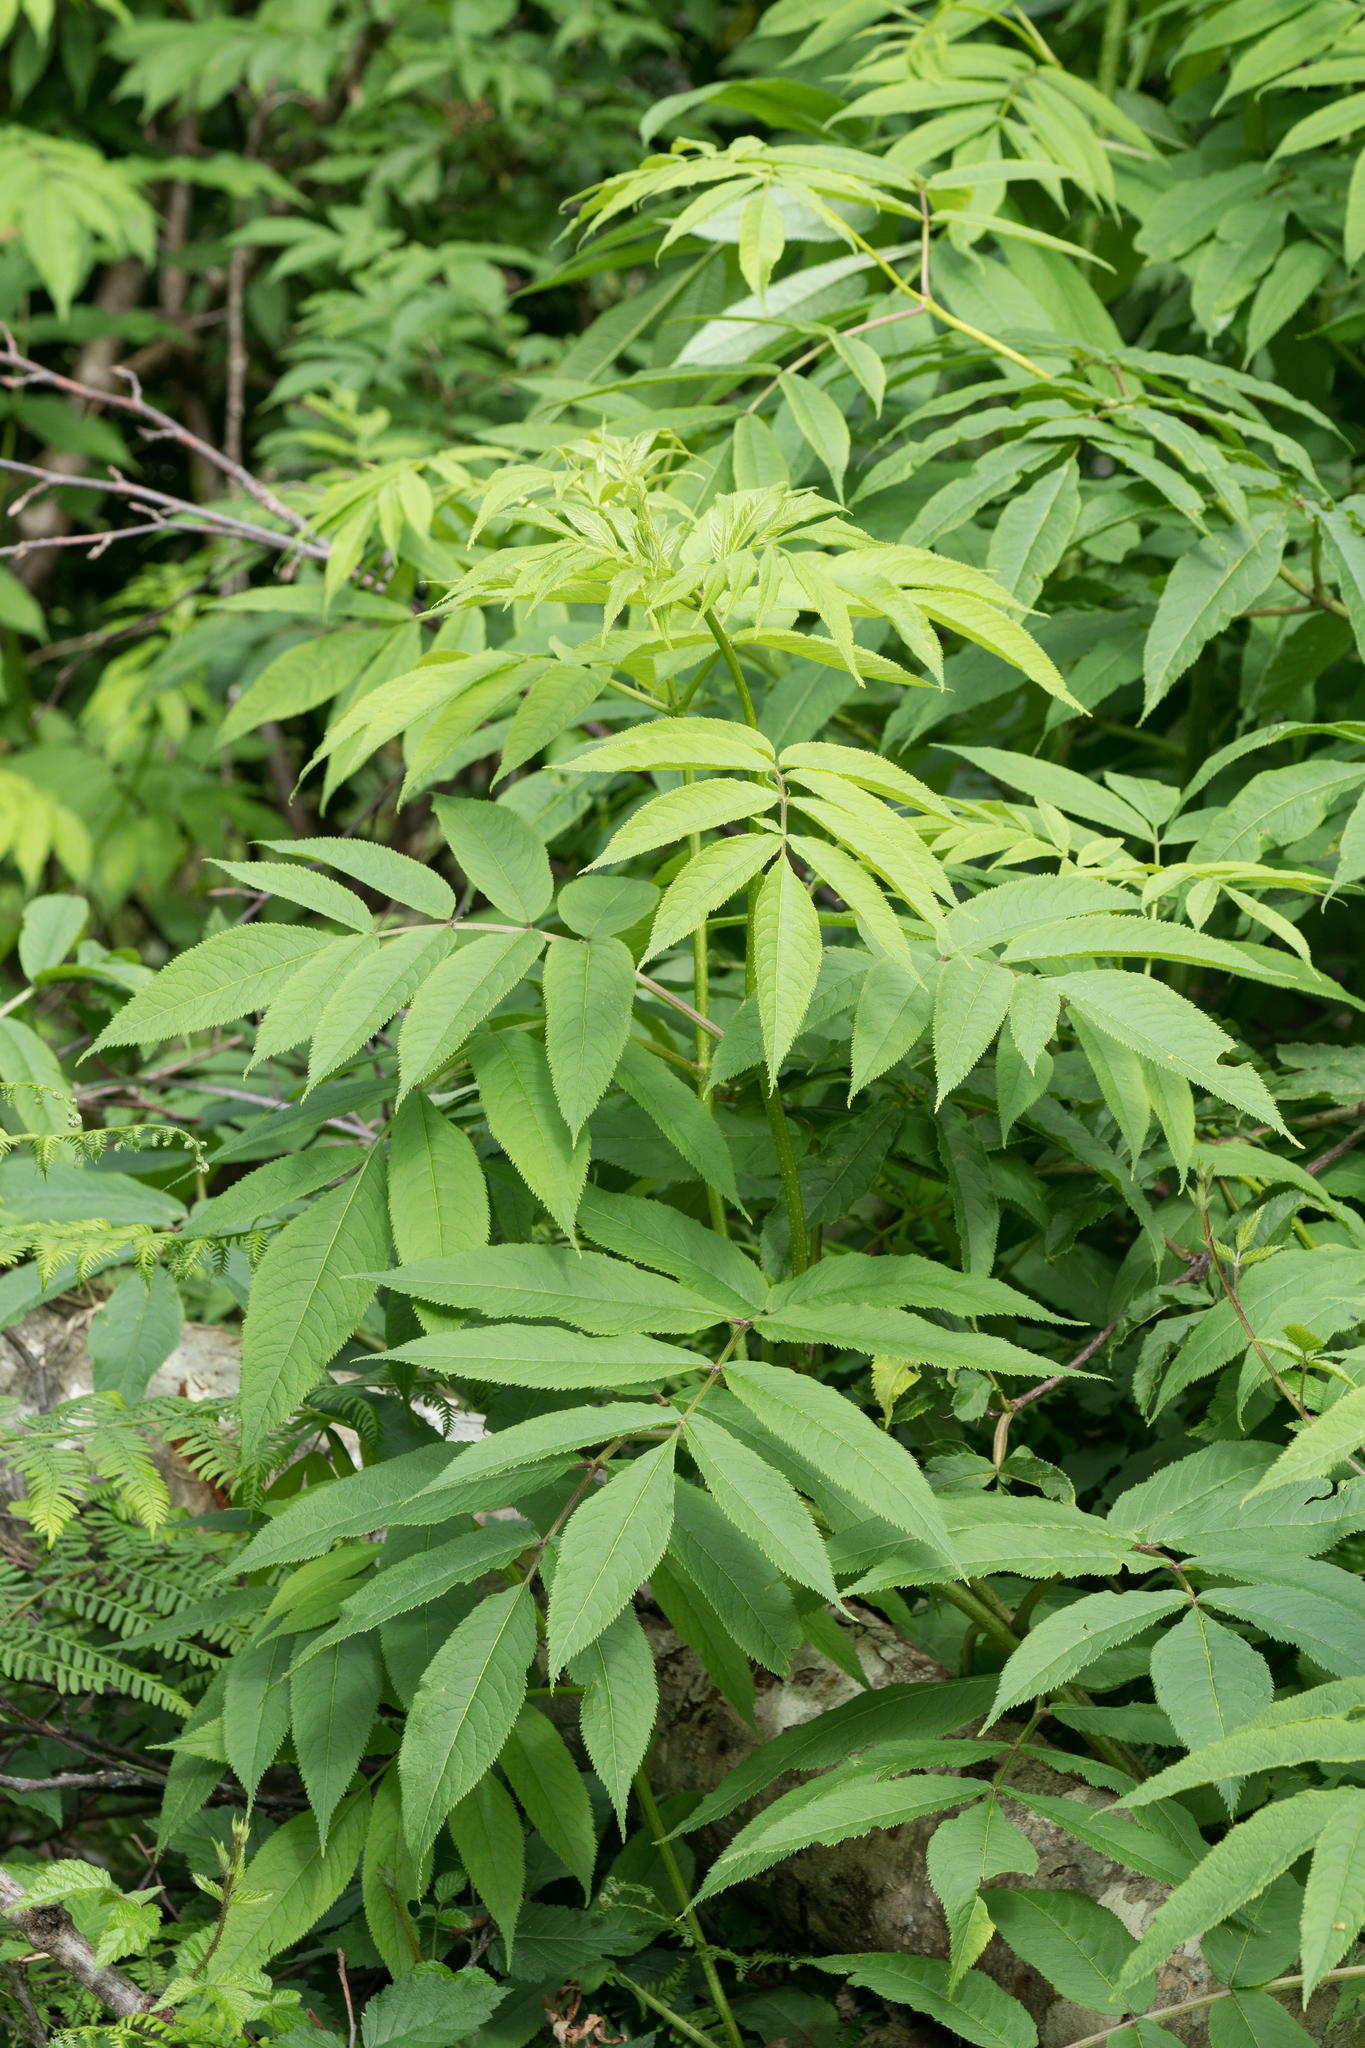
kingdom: Plantae
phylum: Tracheophyta
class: Magnoliopsida
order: Dipsacales
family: Viburnaceae
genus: Sambucus
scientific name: Sambucus racemosa
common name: Red-berried elder
